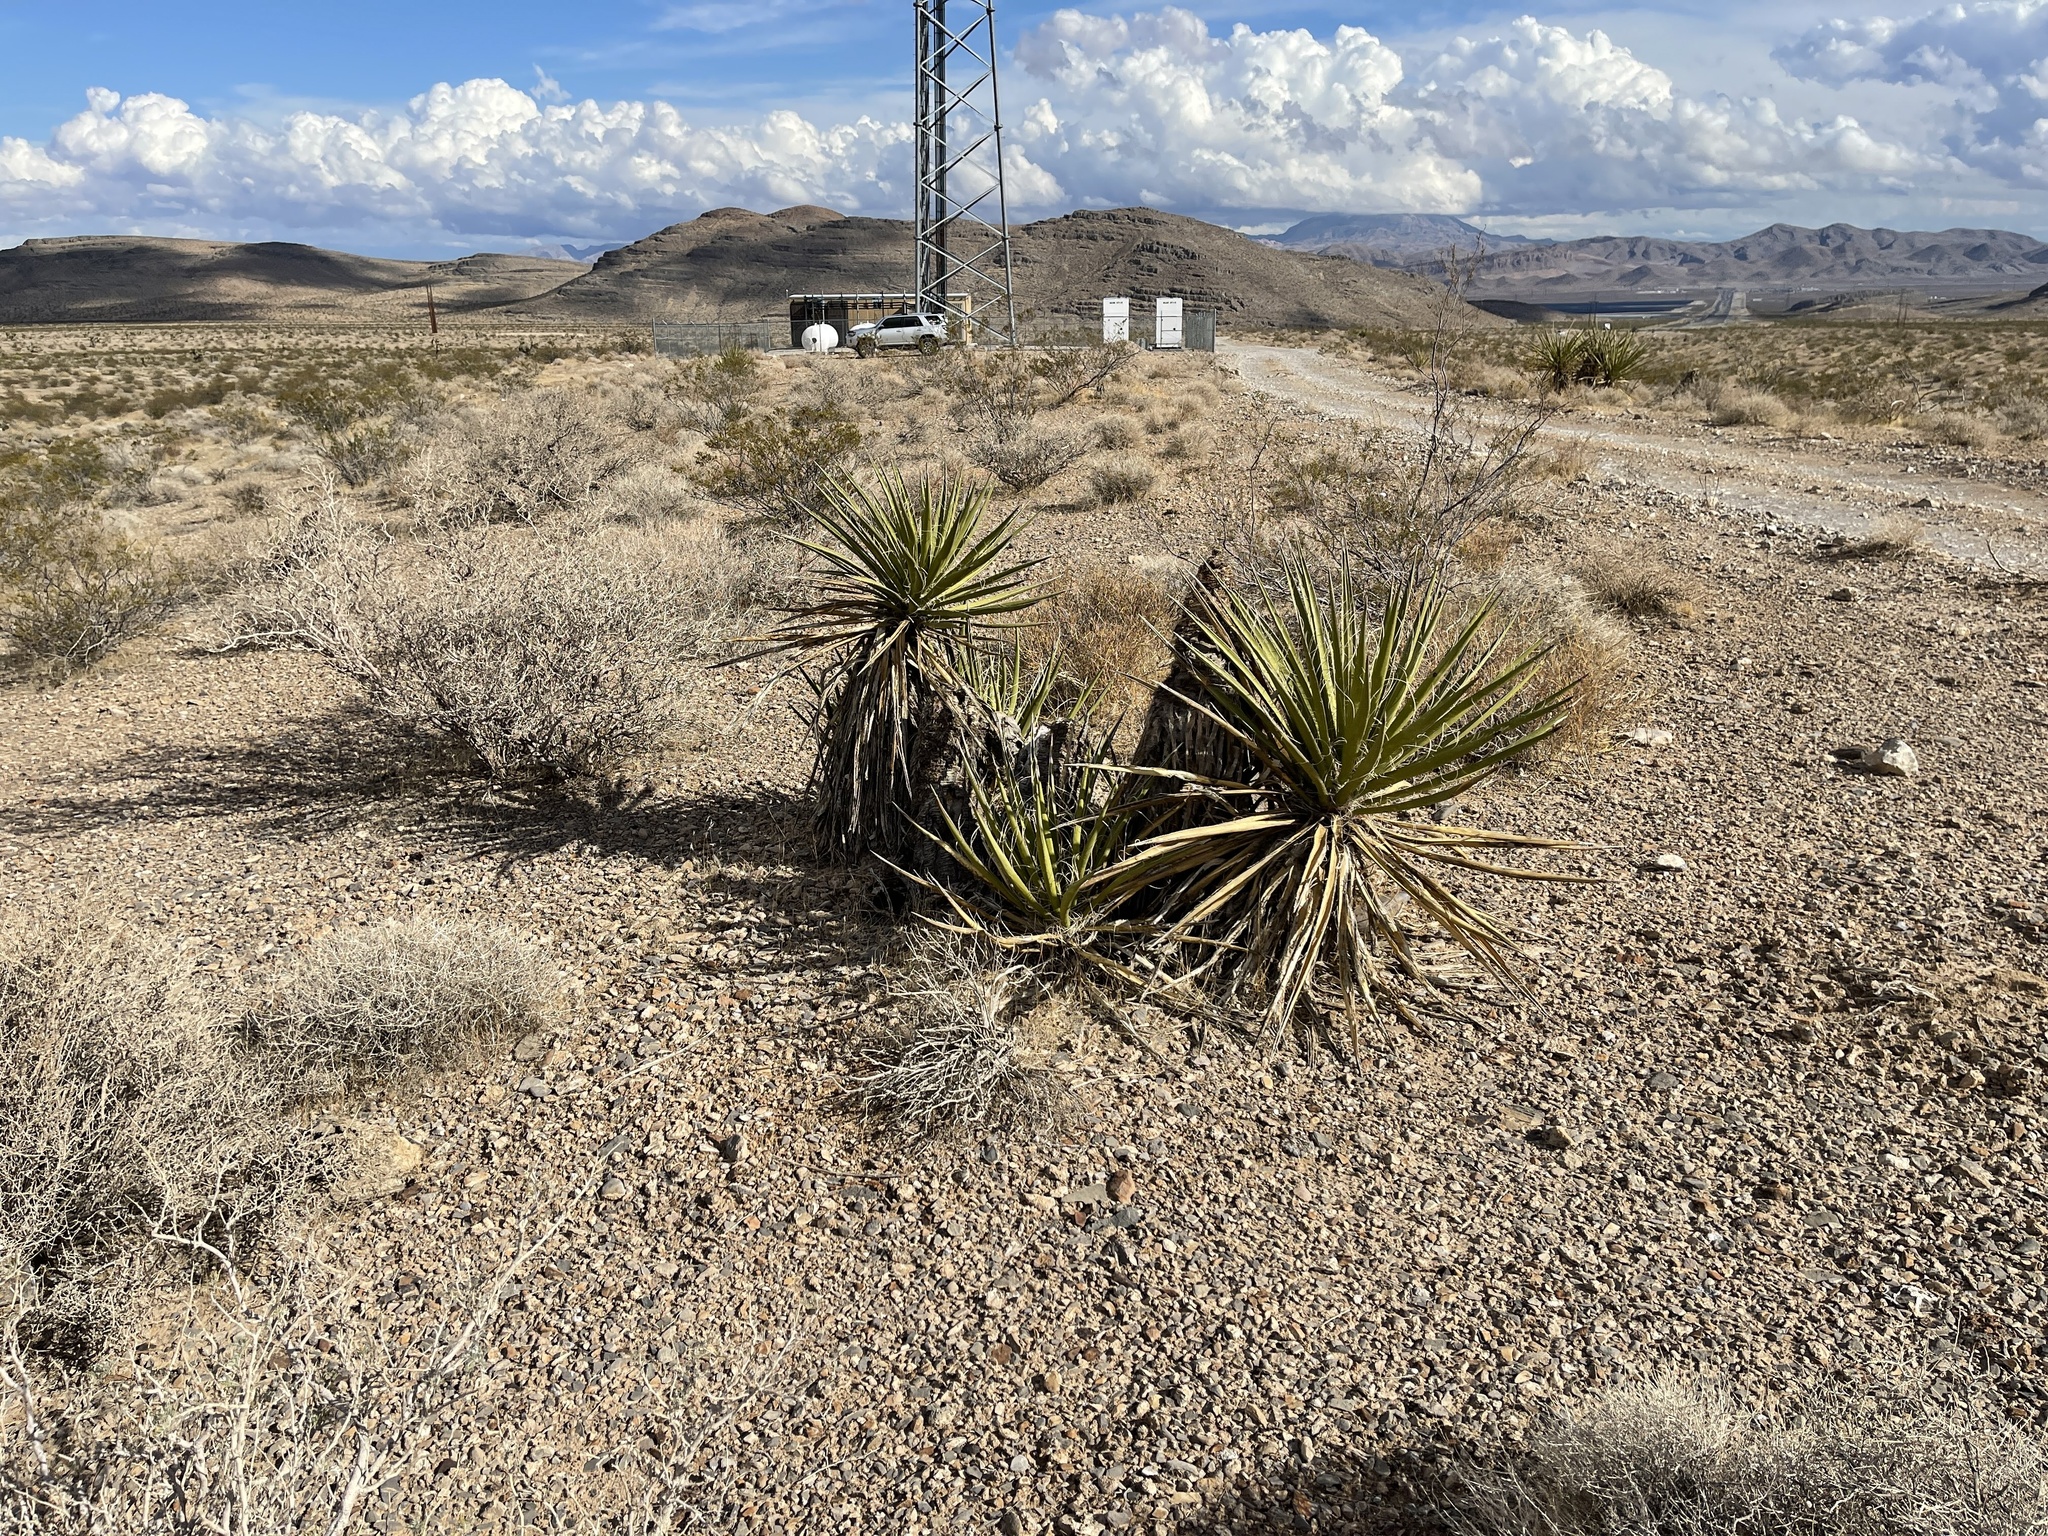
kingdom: Plantae
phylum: Tracheophyta
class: Liliopsida
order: Asparagales
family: Asparagaceae
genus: Yucca
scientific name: Yucca schidigera
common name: Mojave yucca
